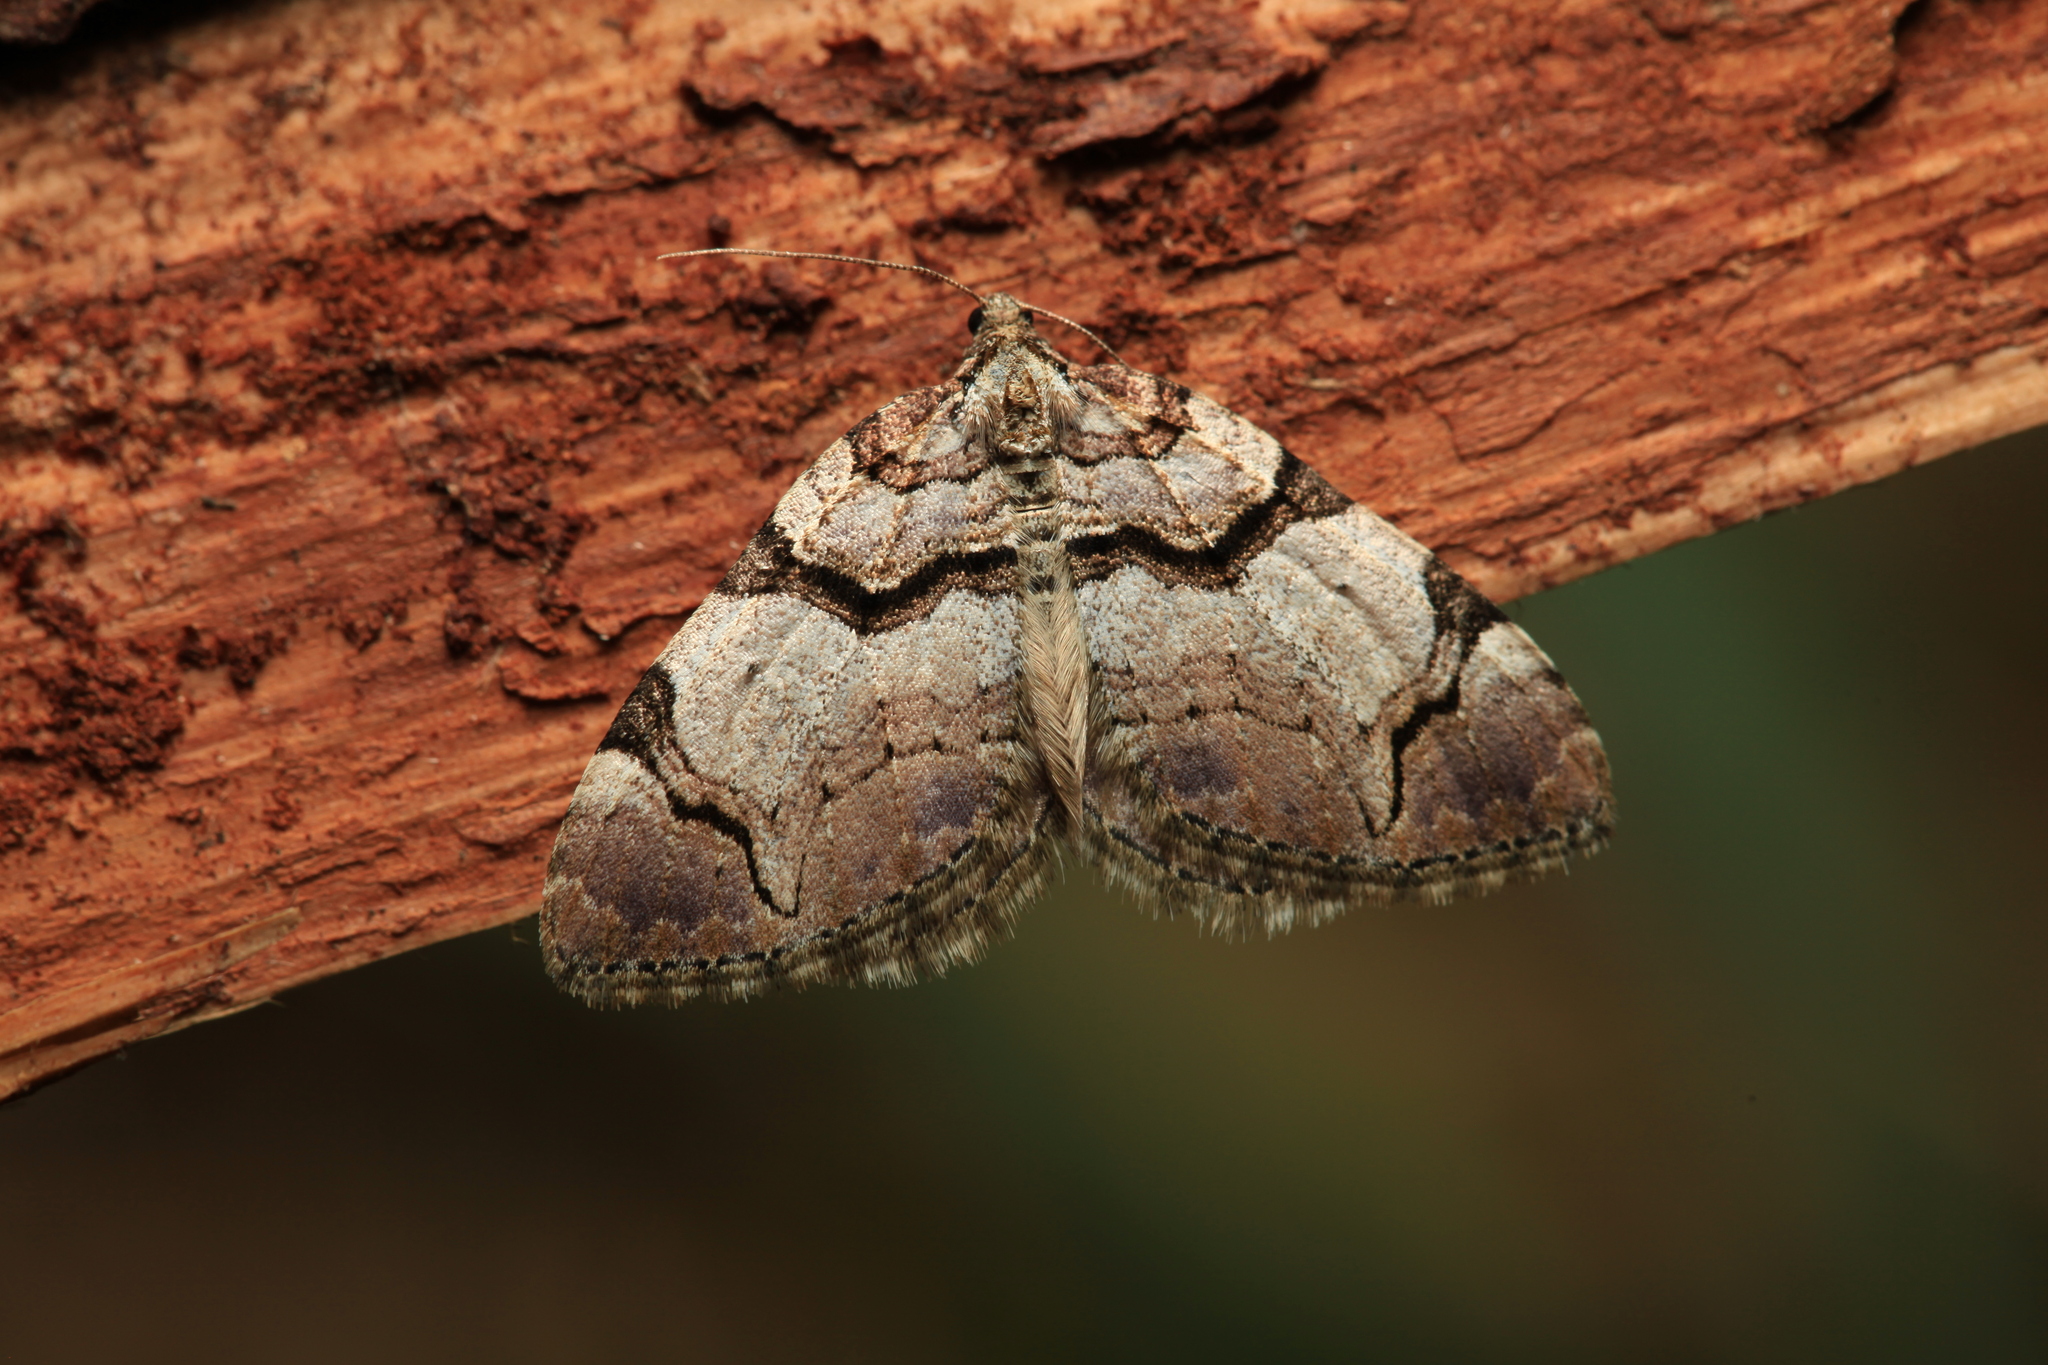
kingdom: Animalia
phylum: Arthropoda
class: Insecta
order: Lepidoptera
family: Geometridae
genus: Anticlea
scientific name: Anticlea derivata
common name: Streamer
